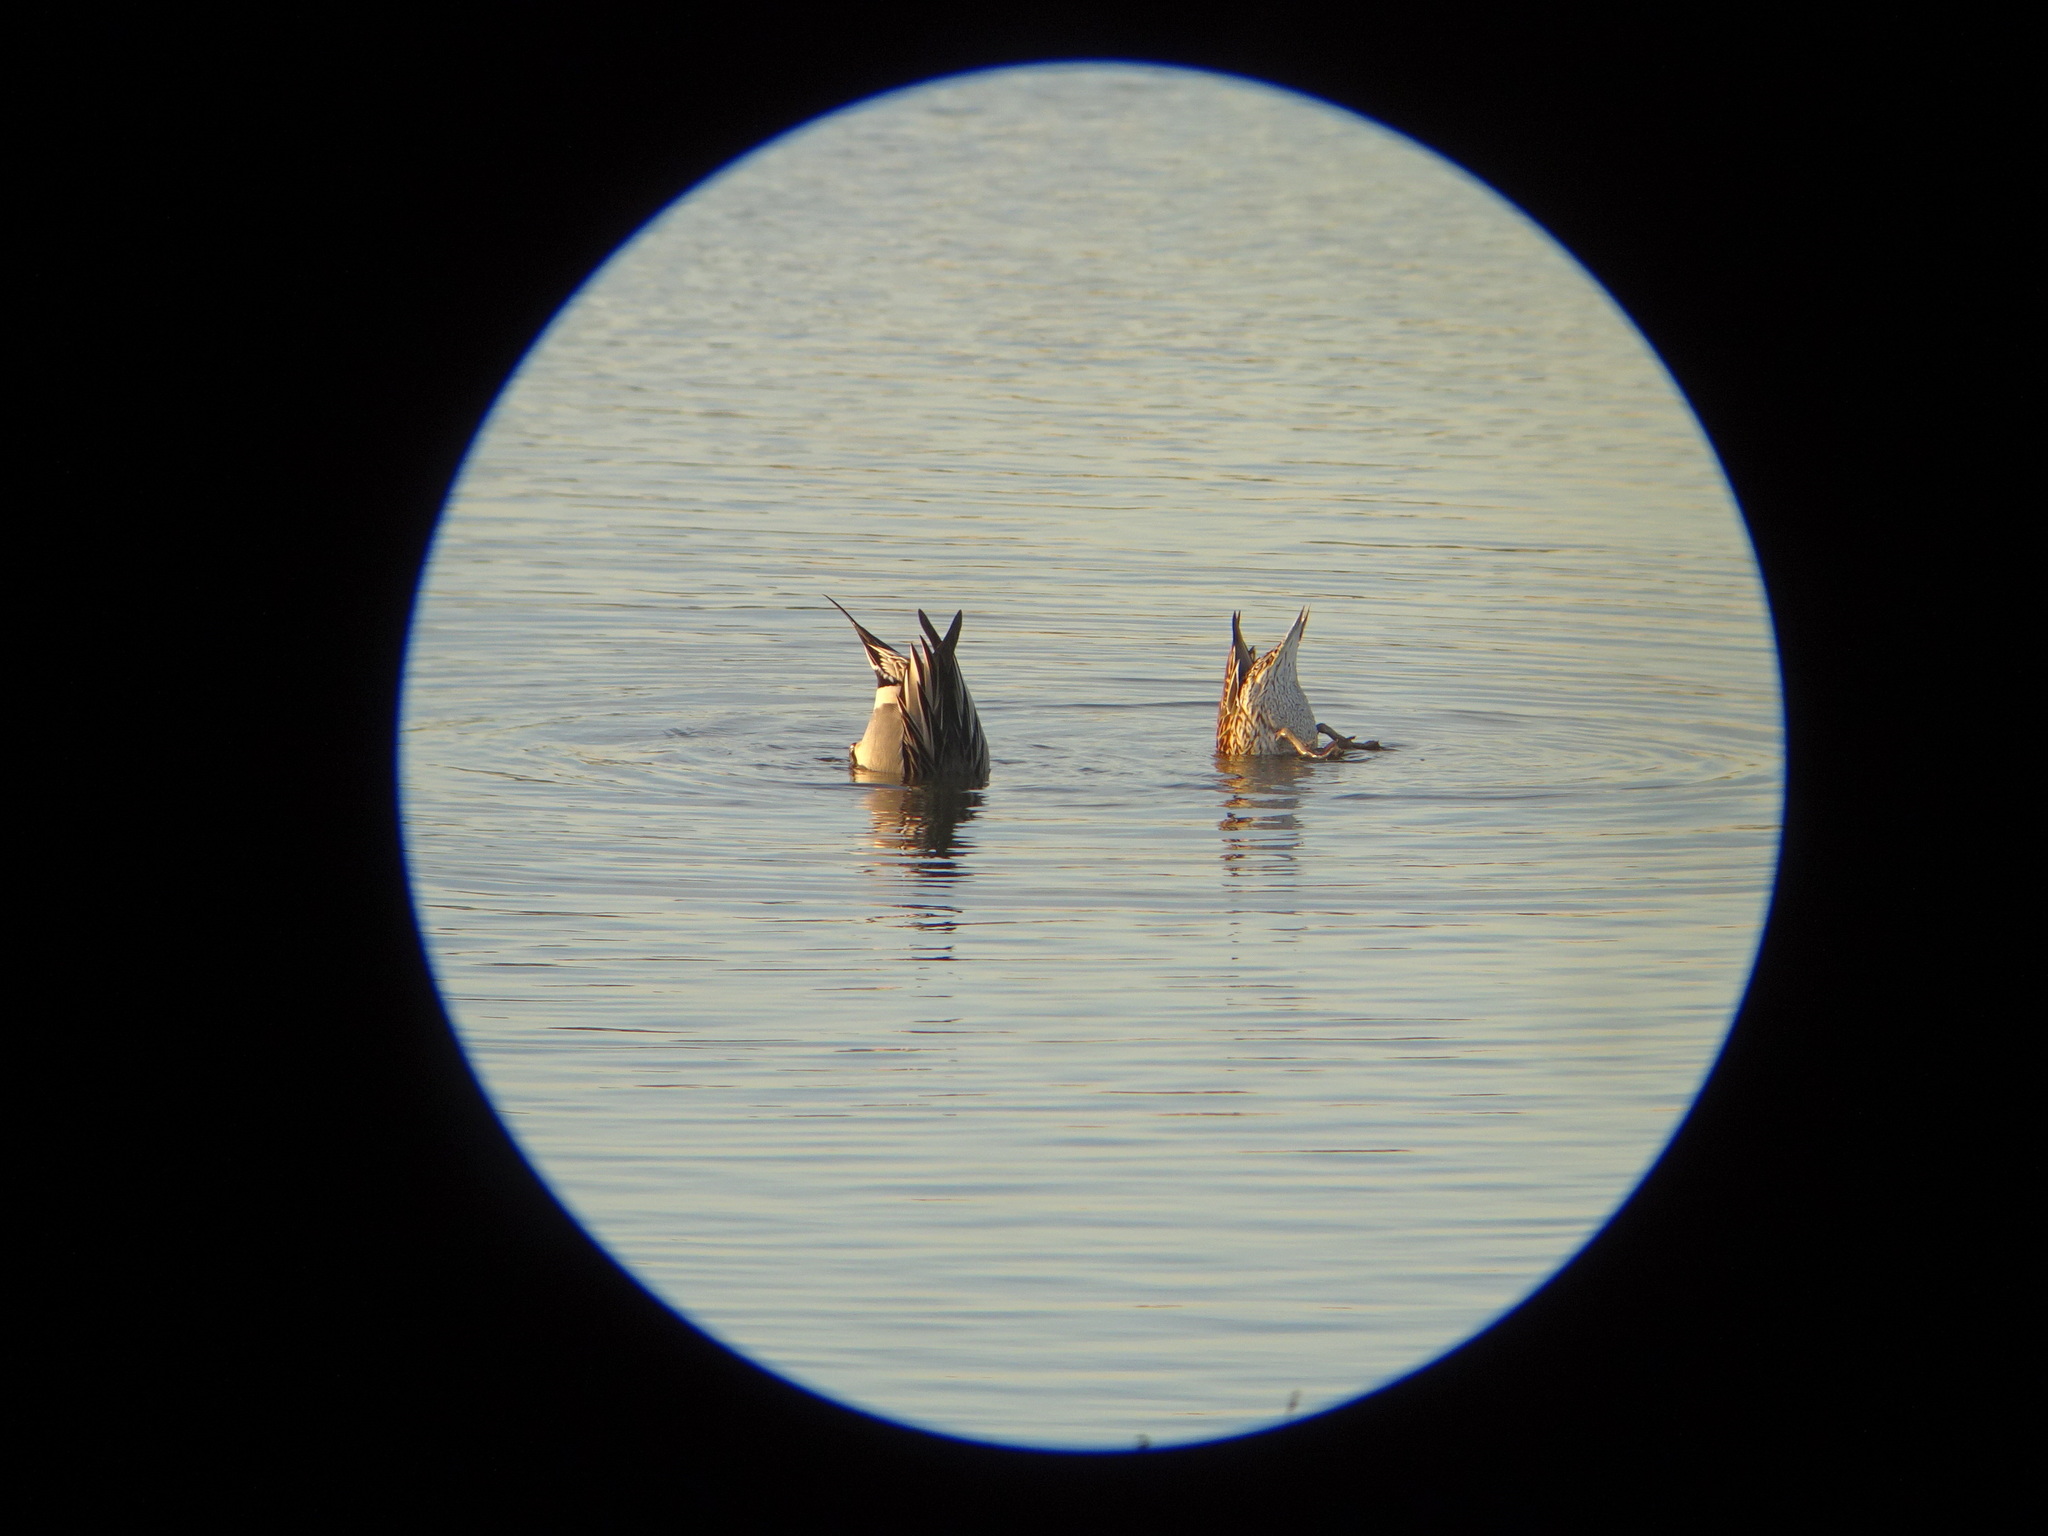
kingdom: Animalia
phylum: Chordata
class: Aves
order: Anseriformes
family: Anatidae
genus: Anas
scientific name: Anas acuta
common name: Northern pintail
